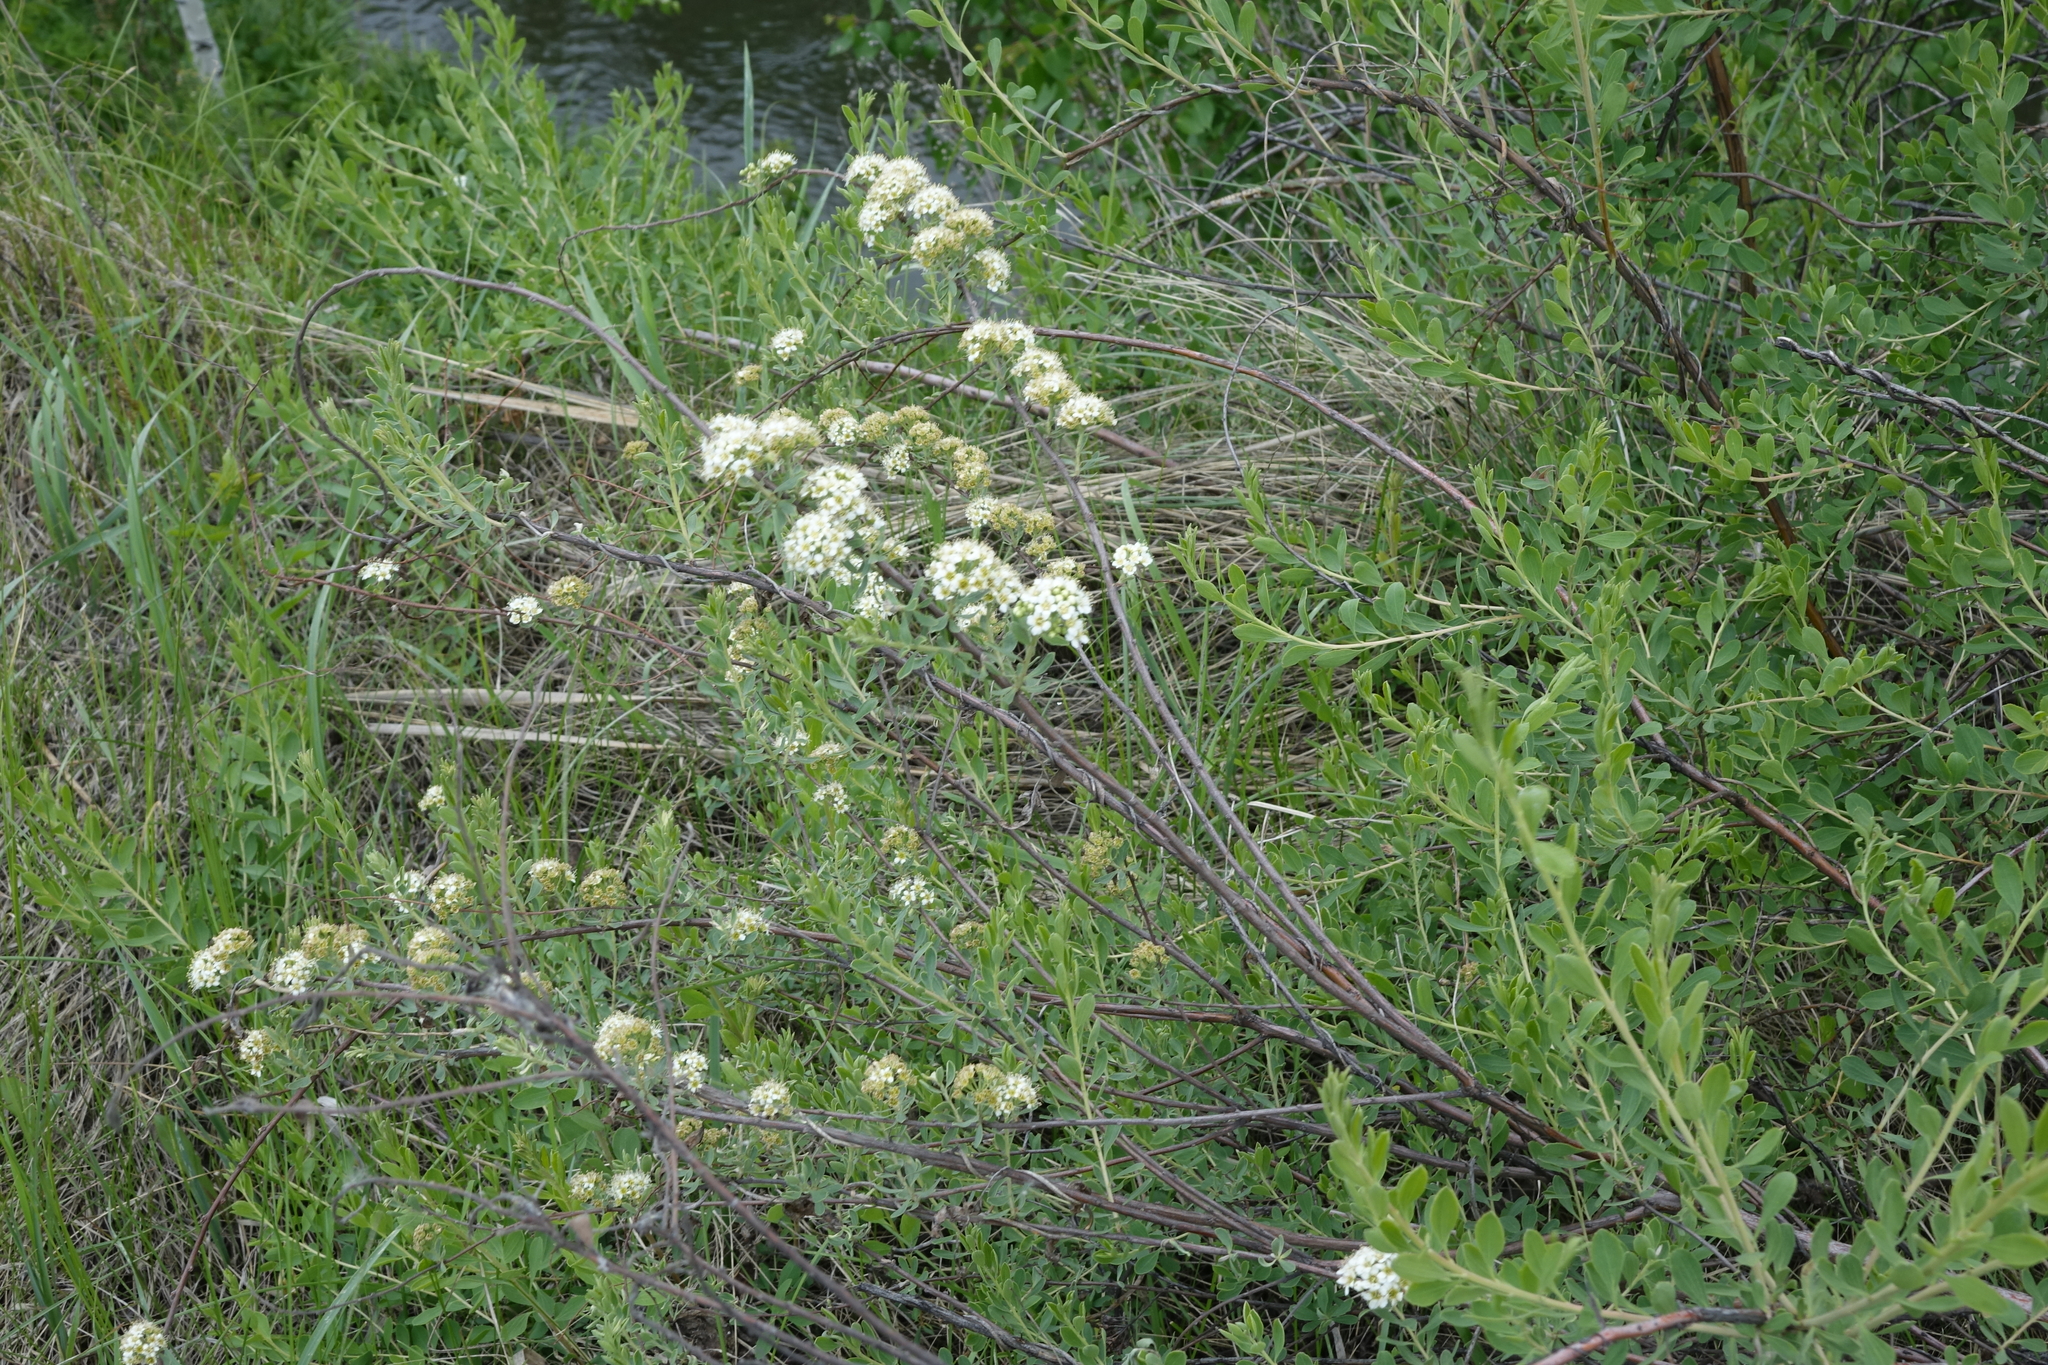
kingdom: Plantae
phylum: Tracheophyta
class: Magnoliopsida
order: Rosales
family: Rosaceae
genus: Spiraea
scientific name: Spiraea crenata
